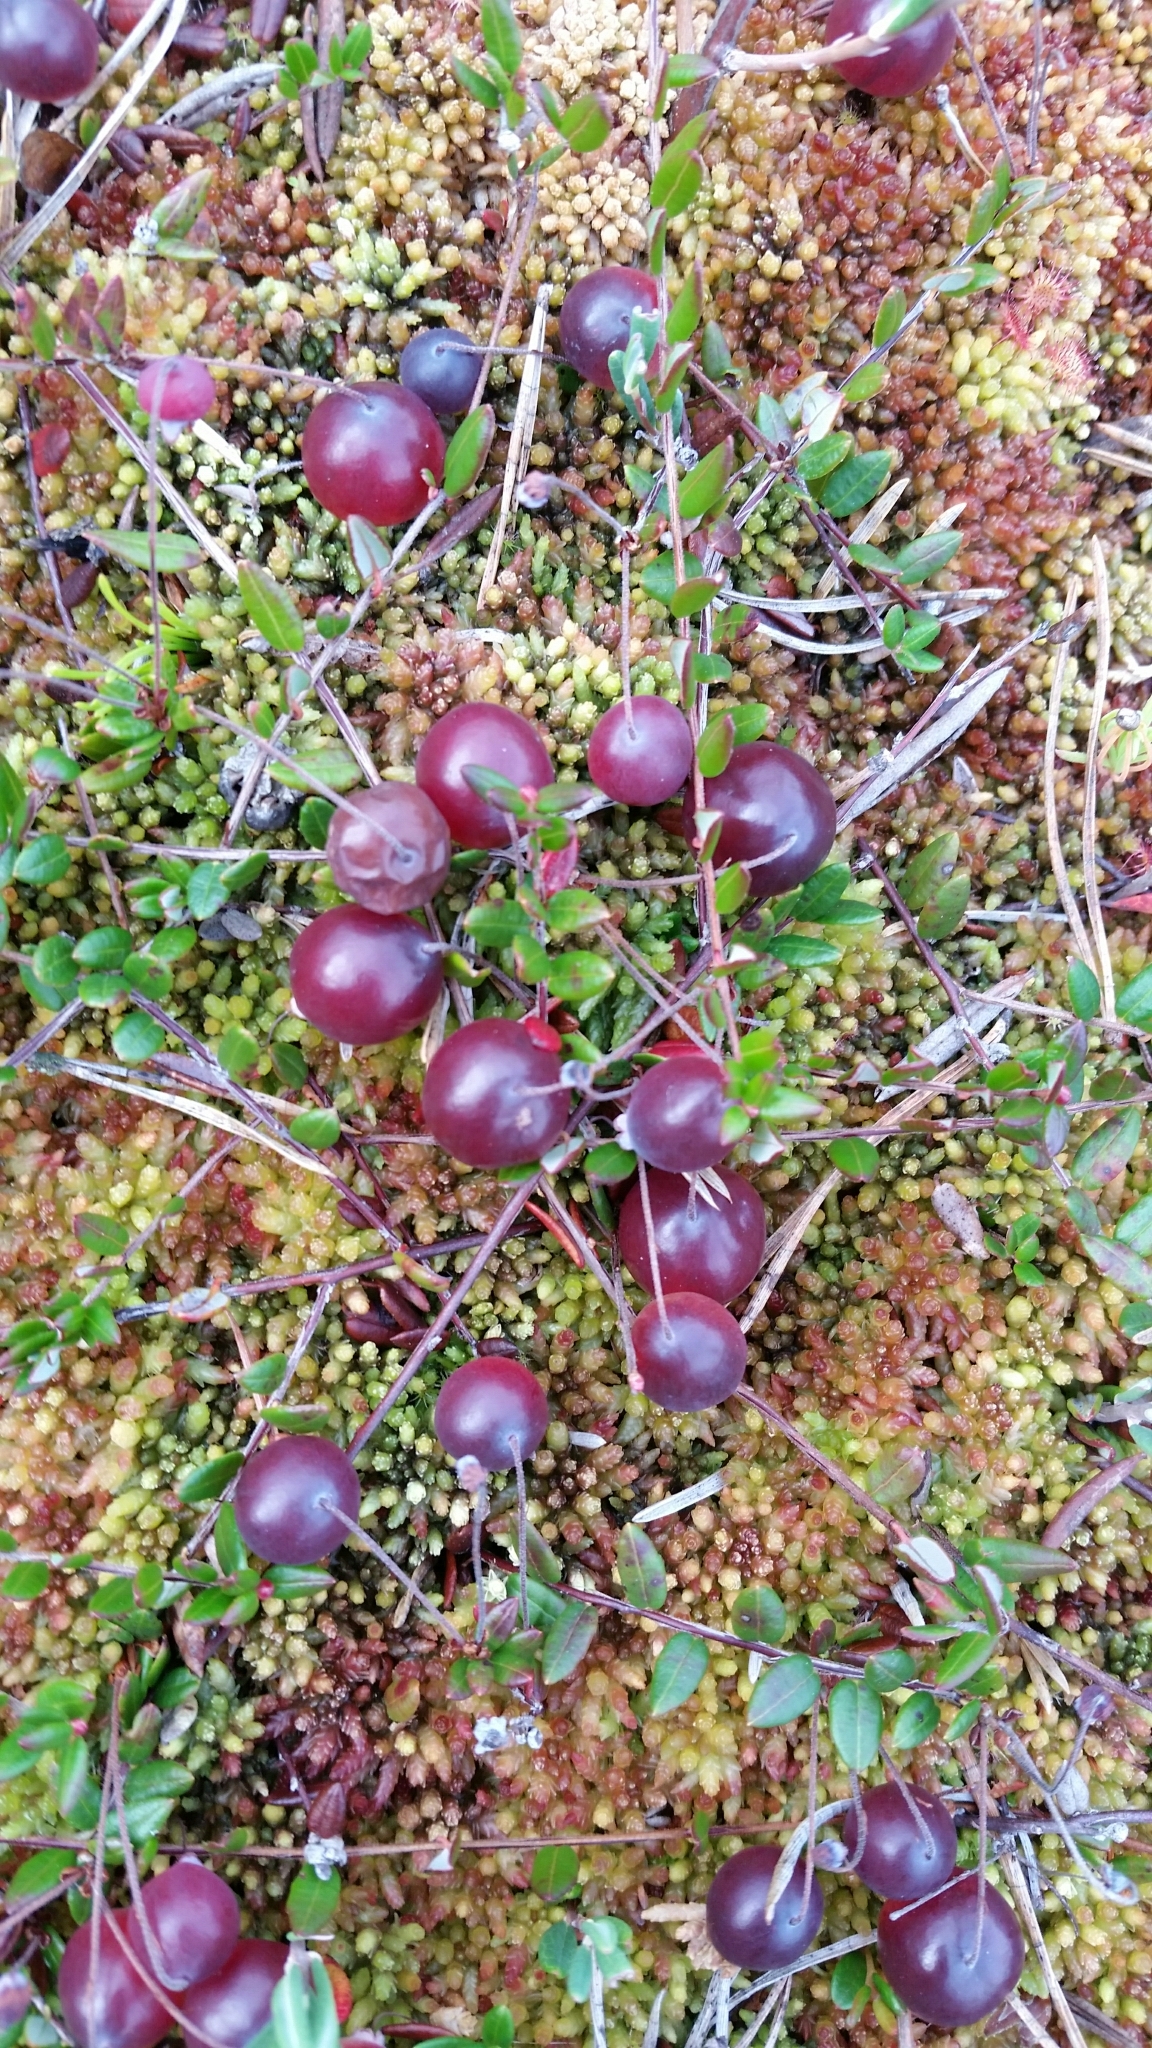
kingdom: Plantae
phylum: Tracheophyta
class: Magnoliopsida
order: Ericales
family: Ericaceae
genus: Vaccinium
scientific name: Vaccinium oxycoccos
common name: Cranberry
